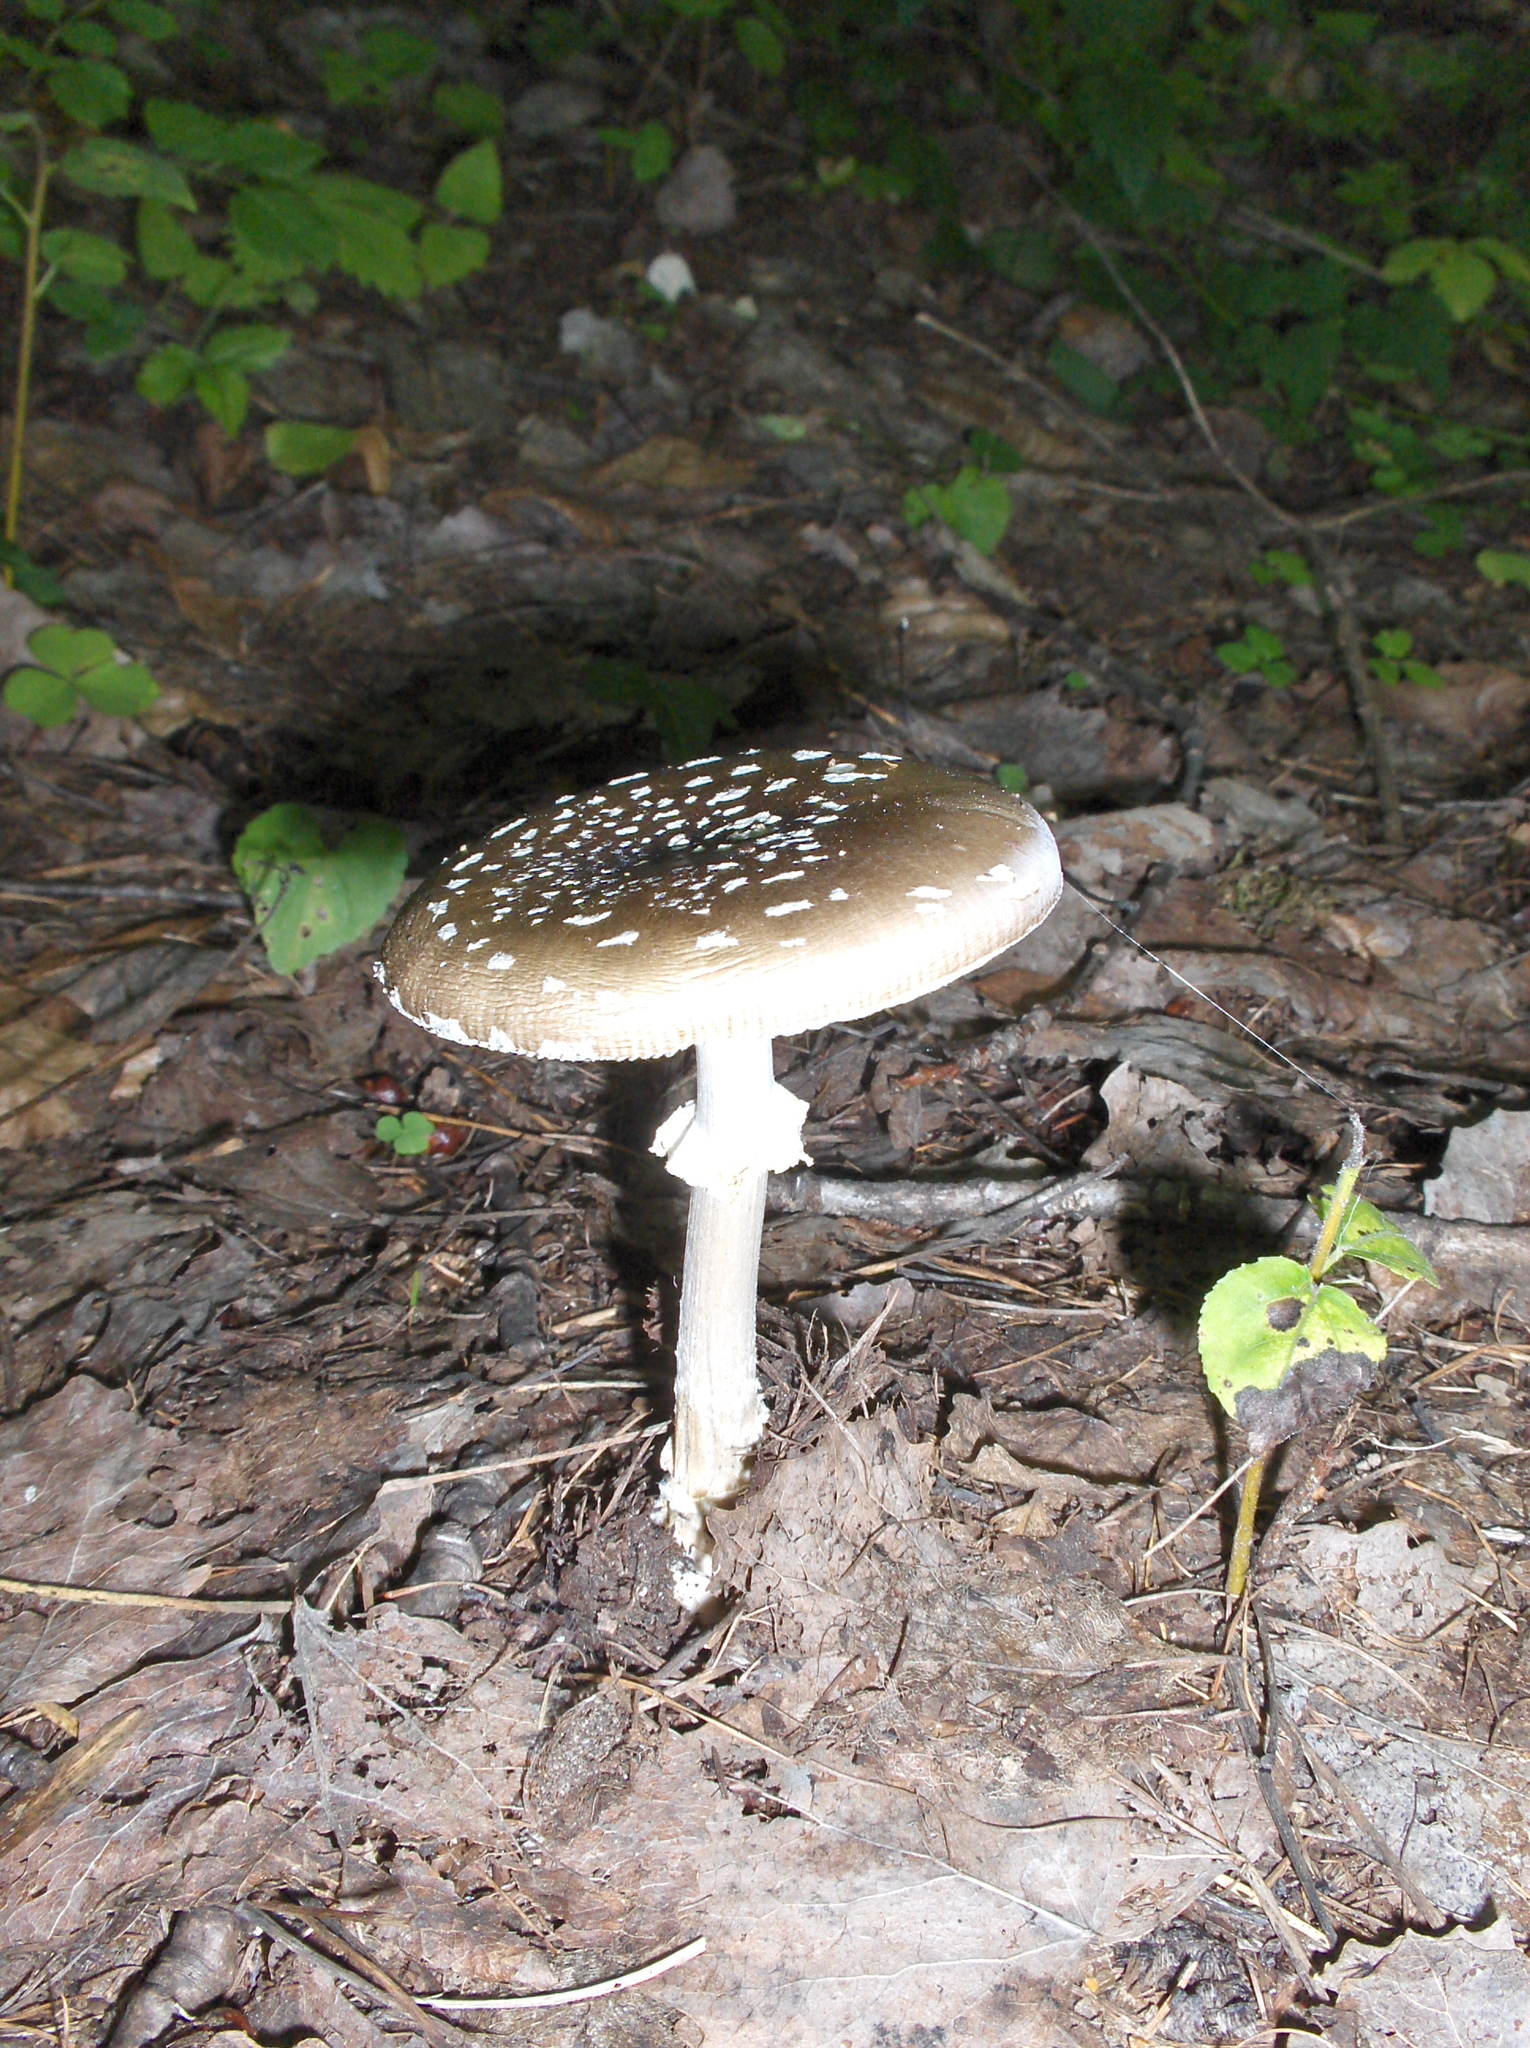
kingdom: Fungi
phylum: Basidiomycota
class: Agaricomycetes
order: Agaricales
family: Amanitaceae
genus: Amanita
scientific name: Amanita pantherina
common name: Panthercap
